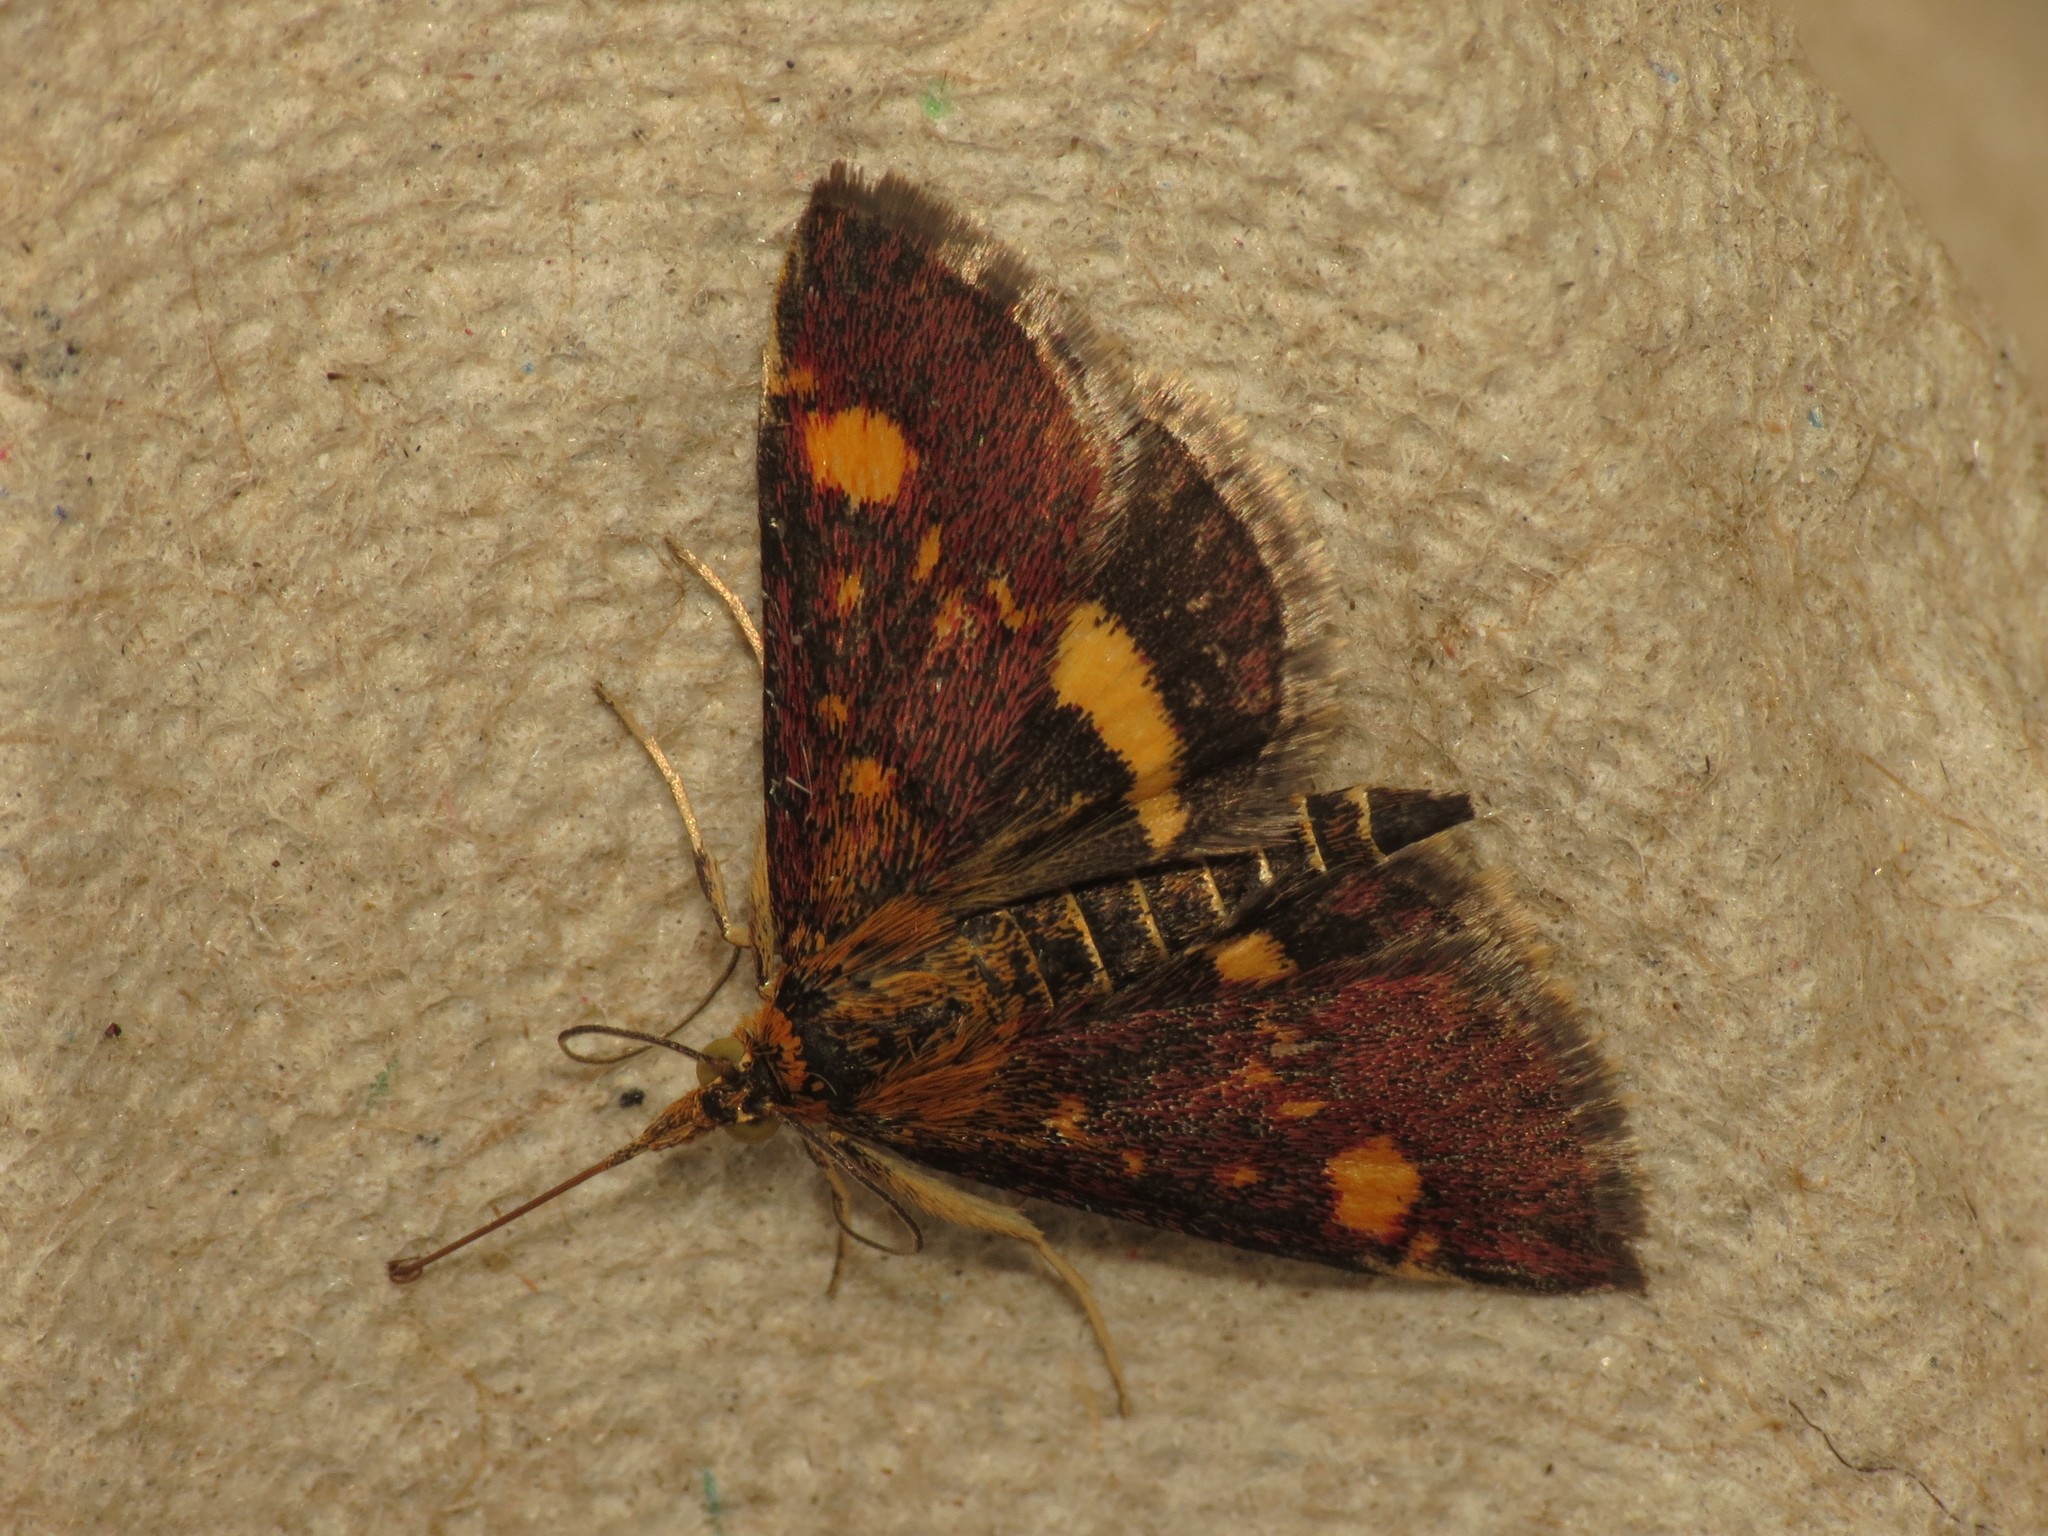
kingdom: Animalia
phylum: Arthropoda
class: Insecta
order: Lepidoptera
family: Crambidae
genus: Pyrausta
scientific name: Pyrausta aurata
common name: Small purple & gold
